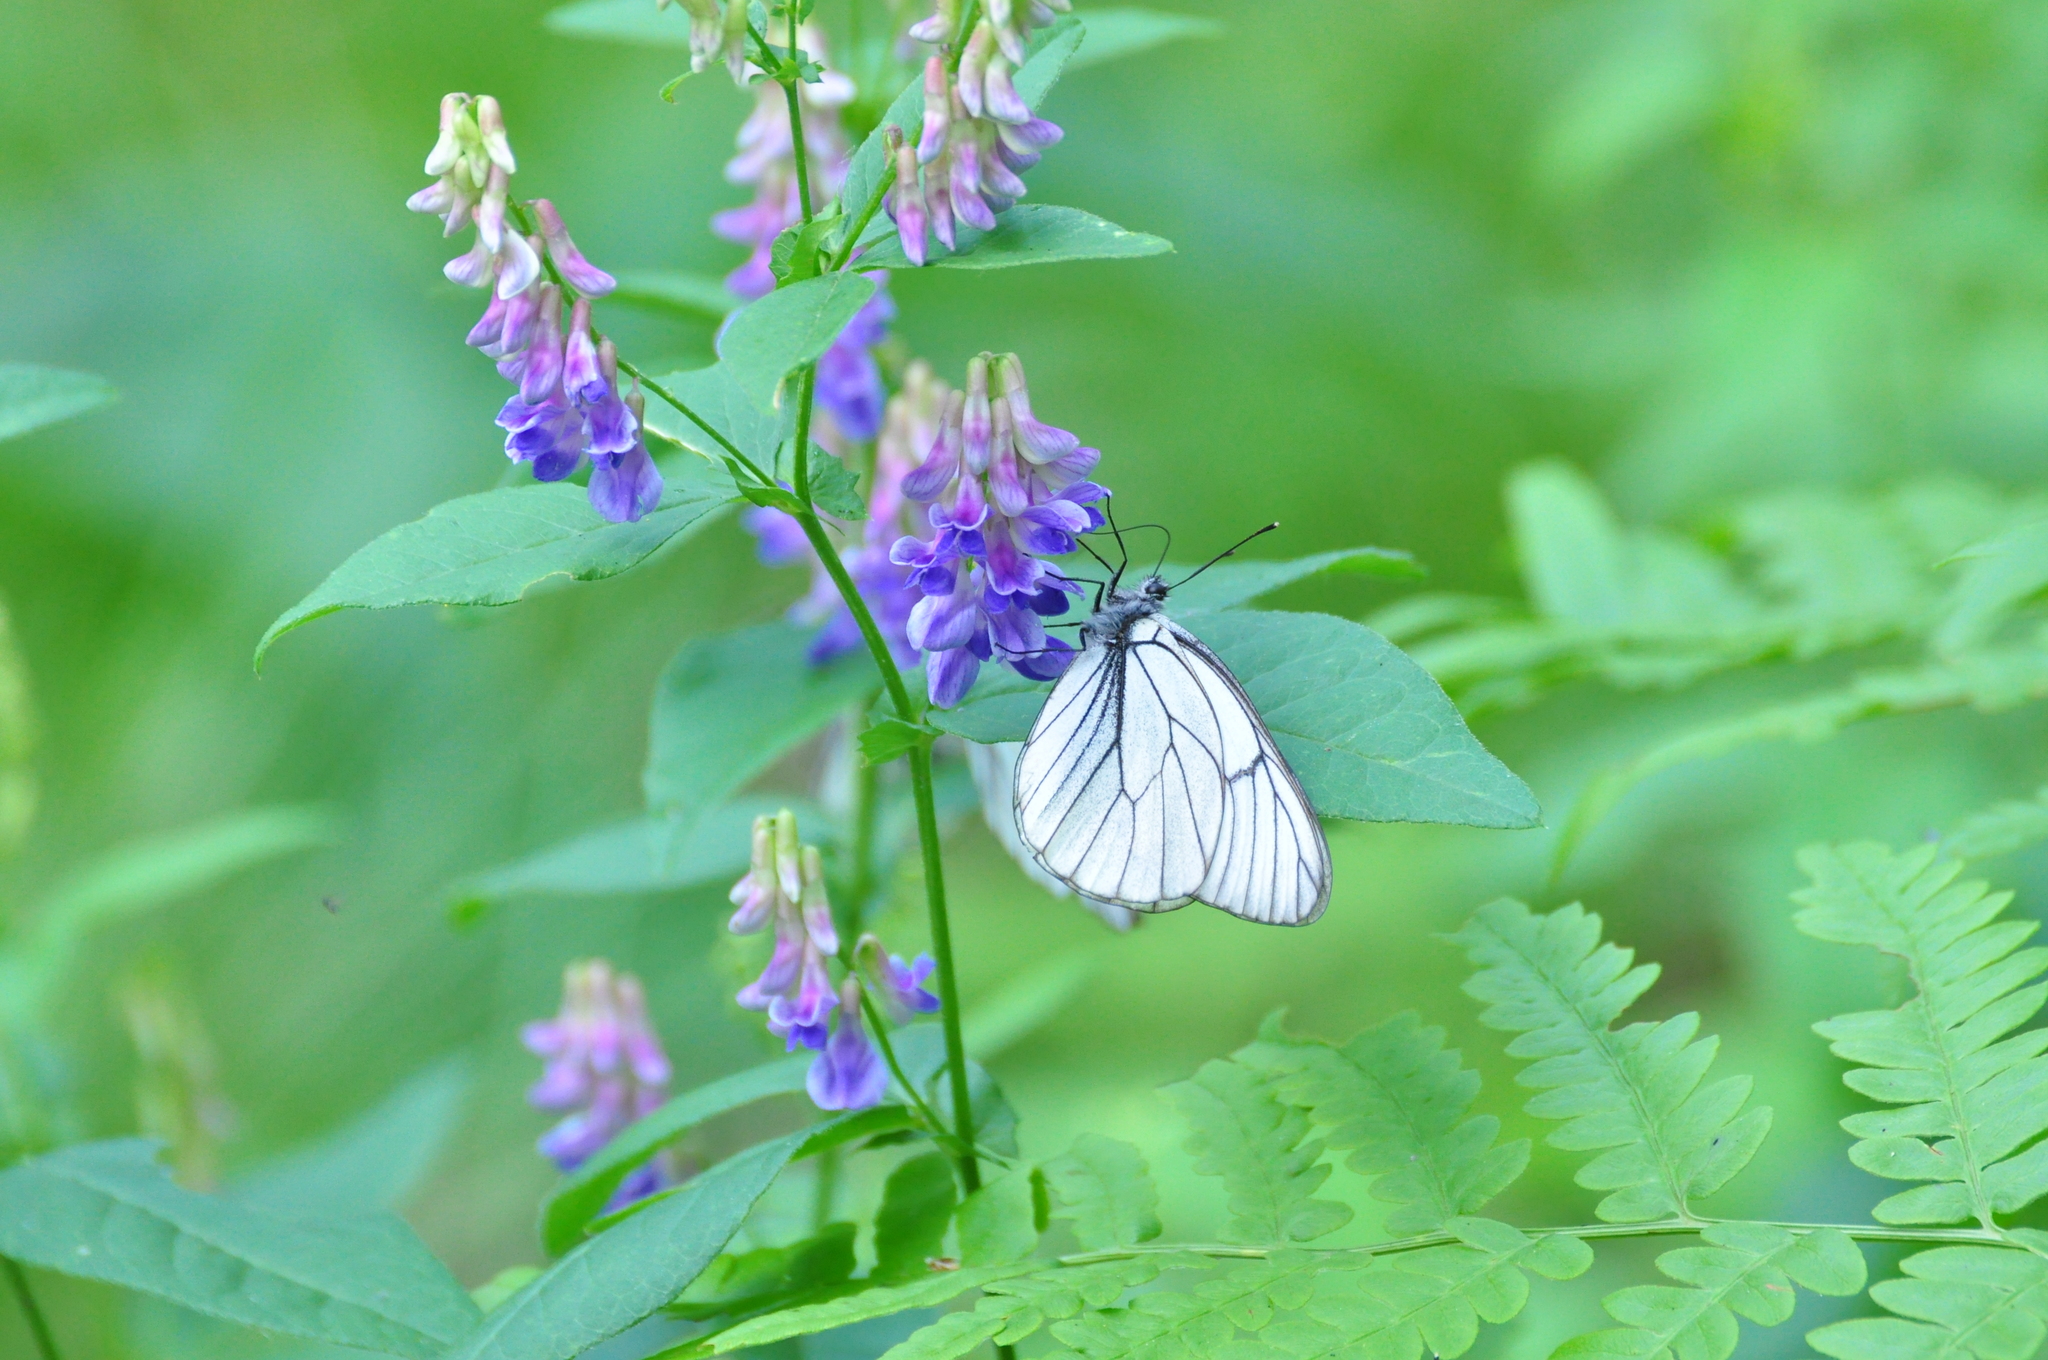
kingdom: Animalia
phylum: Arthropoda
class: Insecta
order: Lepidoptera
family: Pieridae
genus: Aporia
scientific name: Aporia crataegi
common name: Black-veined white
